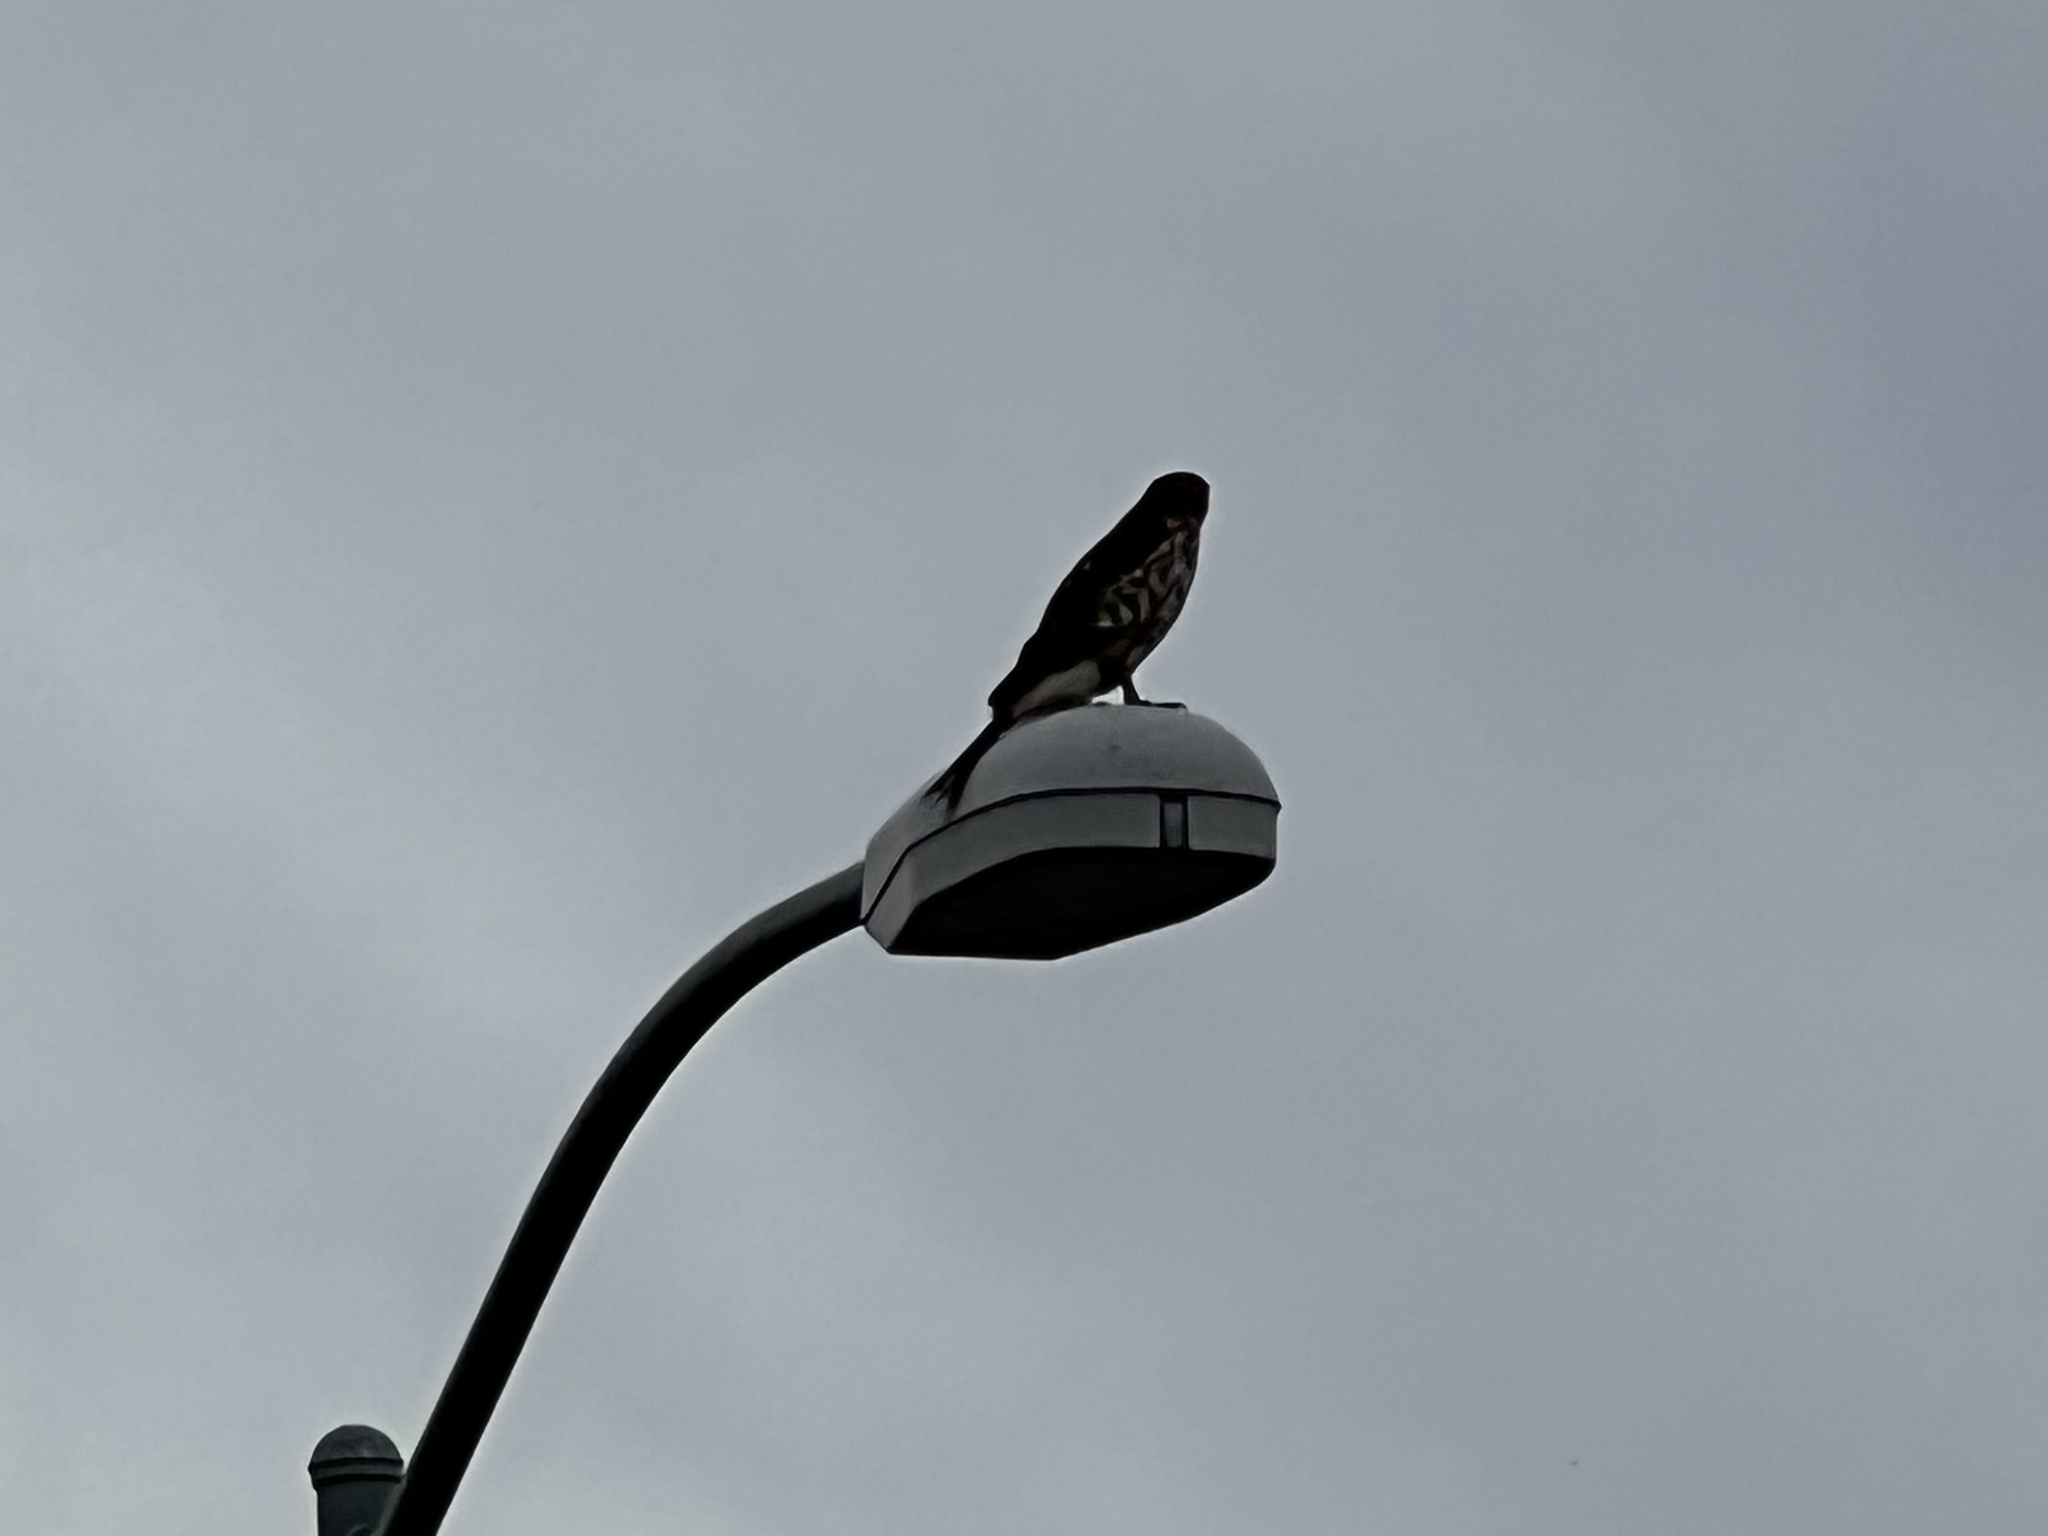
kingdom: Animalia
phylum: Chordata
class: Aves
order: Accipitriformes
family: Accipitridae
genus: Accipiter
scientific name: Accipiter cooperii
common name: Cooper's hawk
